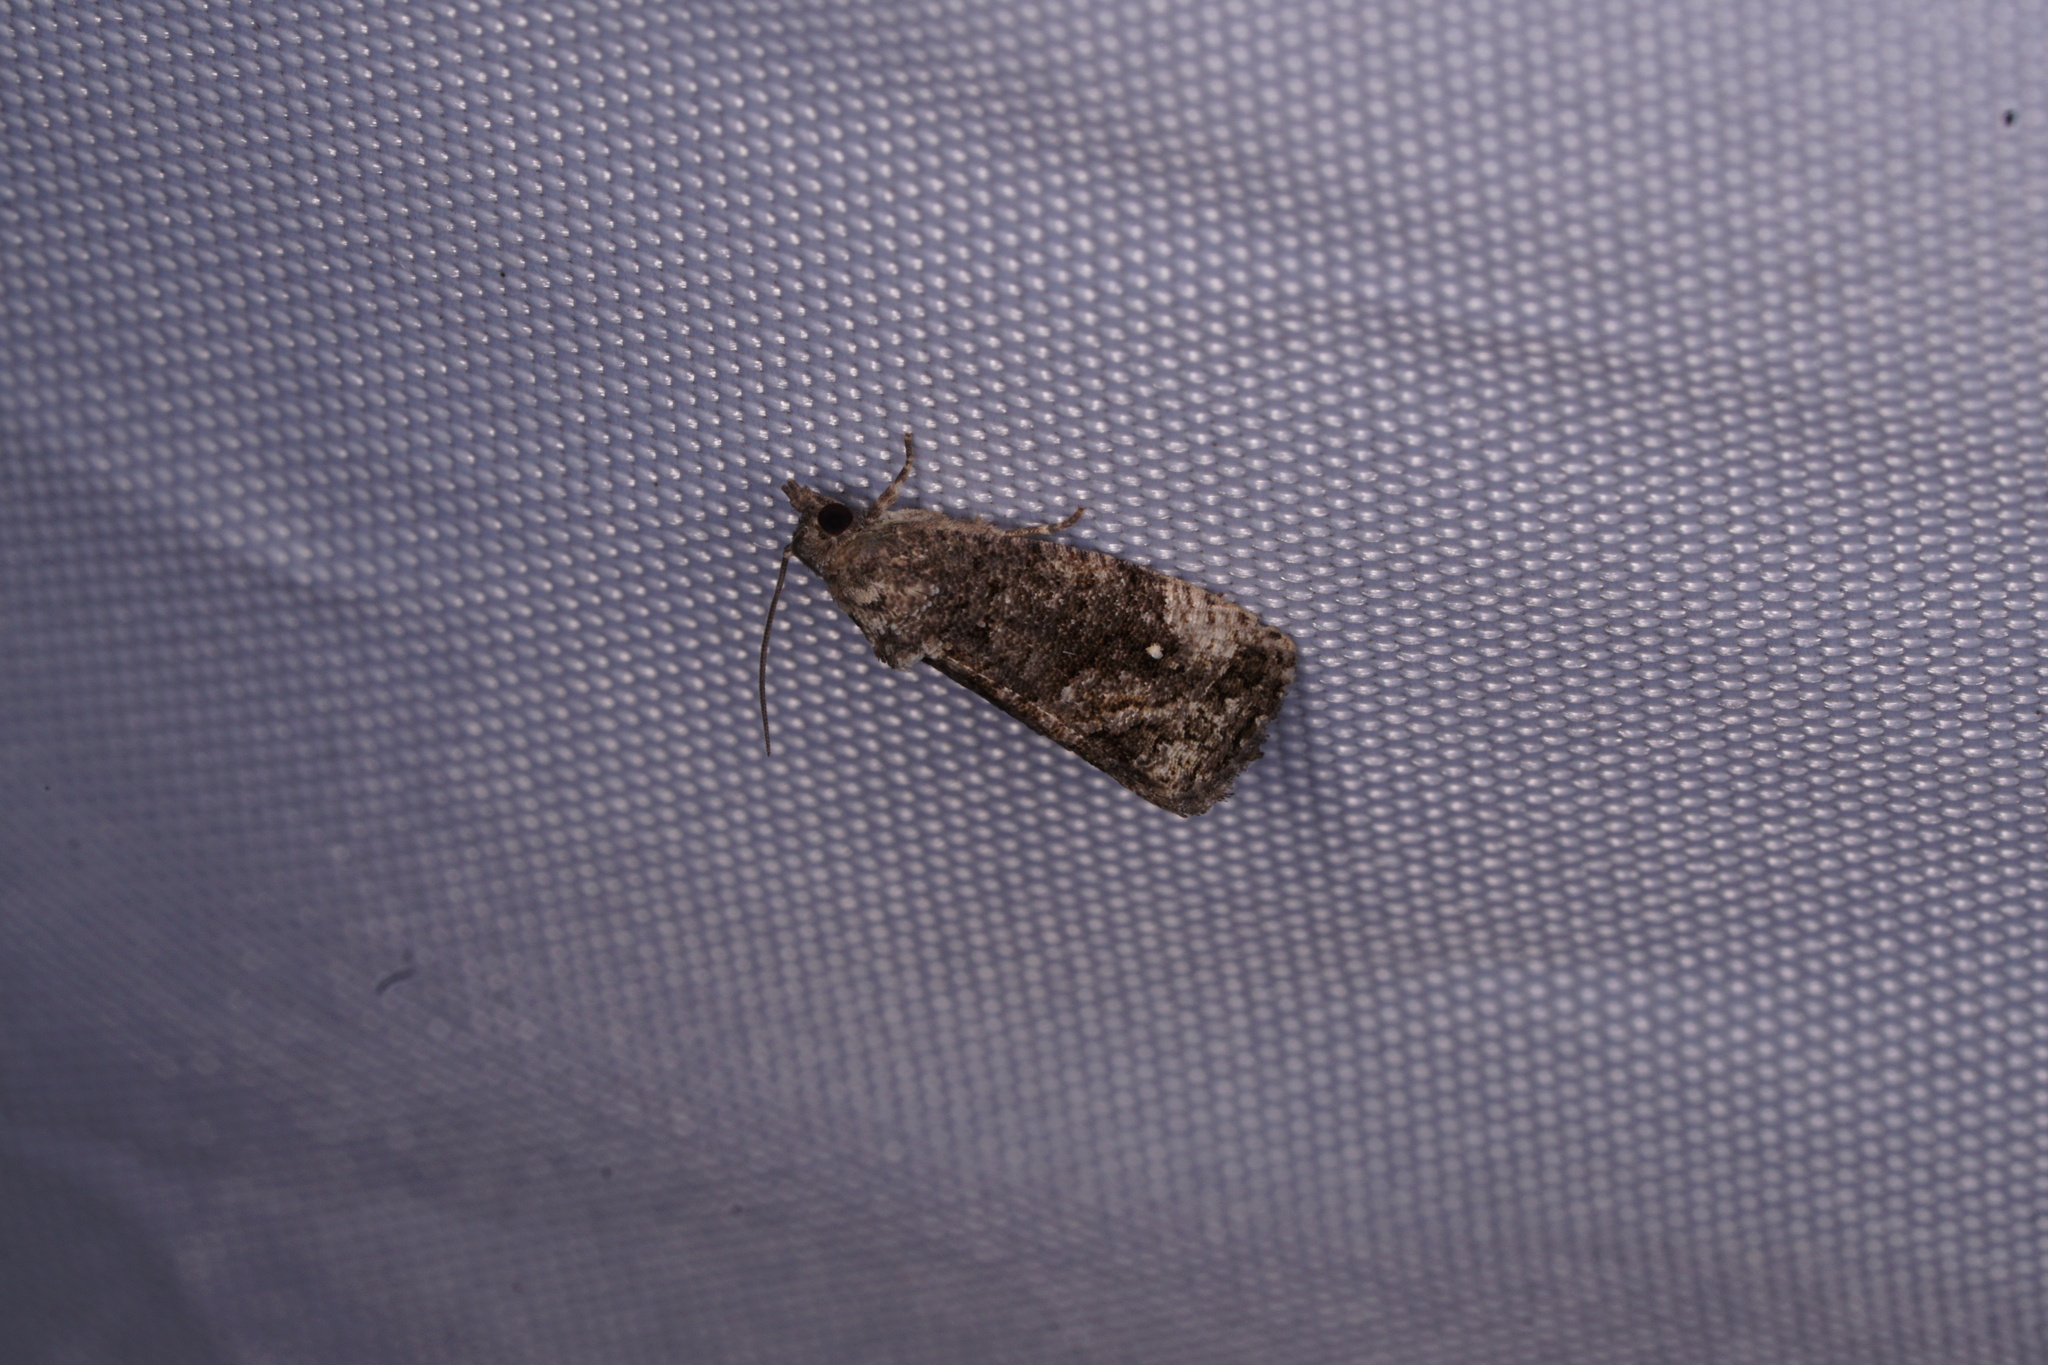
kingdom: Animalia
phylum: Arthropoda
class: Insecta
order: Lepidoptera
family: Tortricidae
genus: Gymnandrosoma
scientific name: Gymnandrosoma punctidiscanum
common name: Dotted ecdytolopha moth
